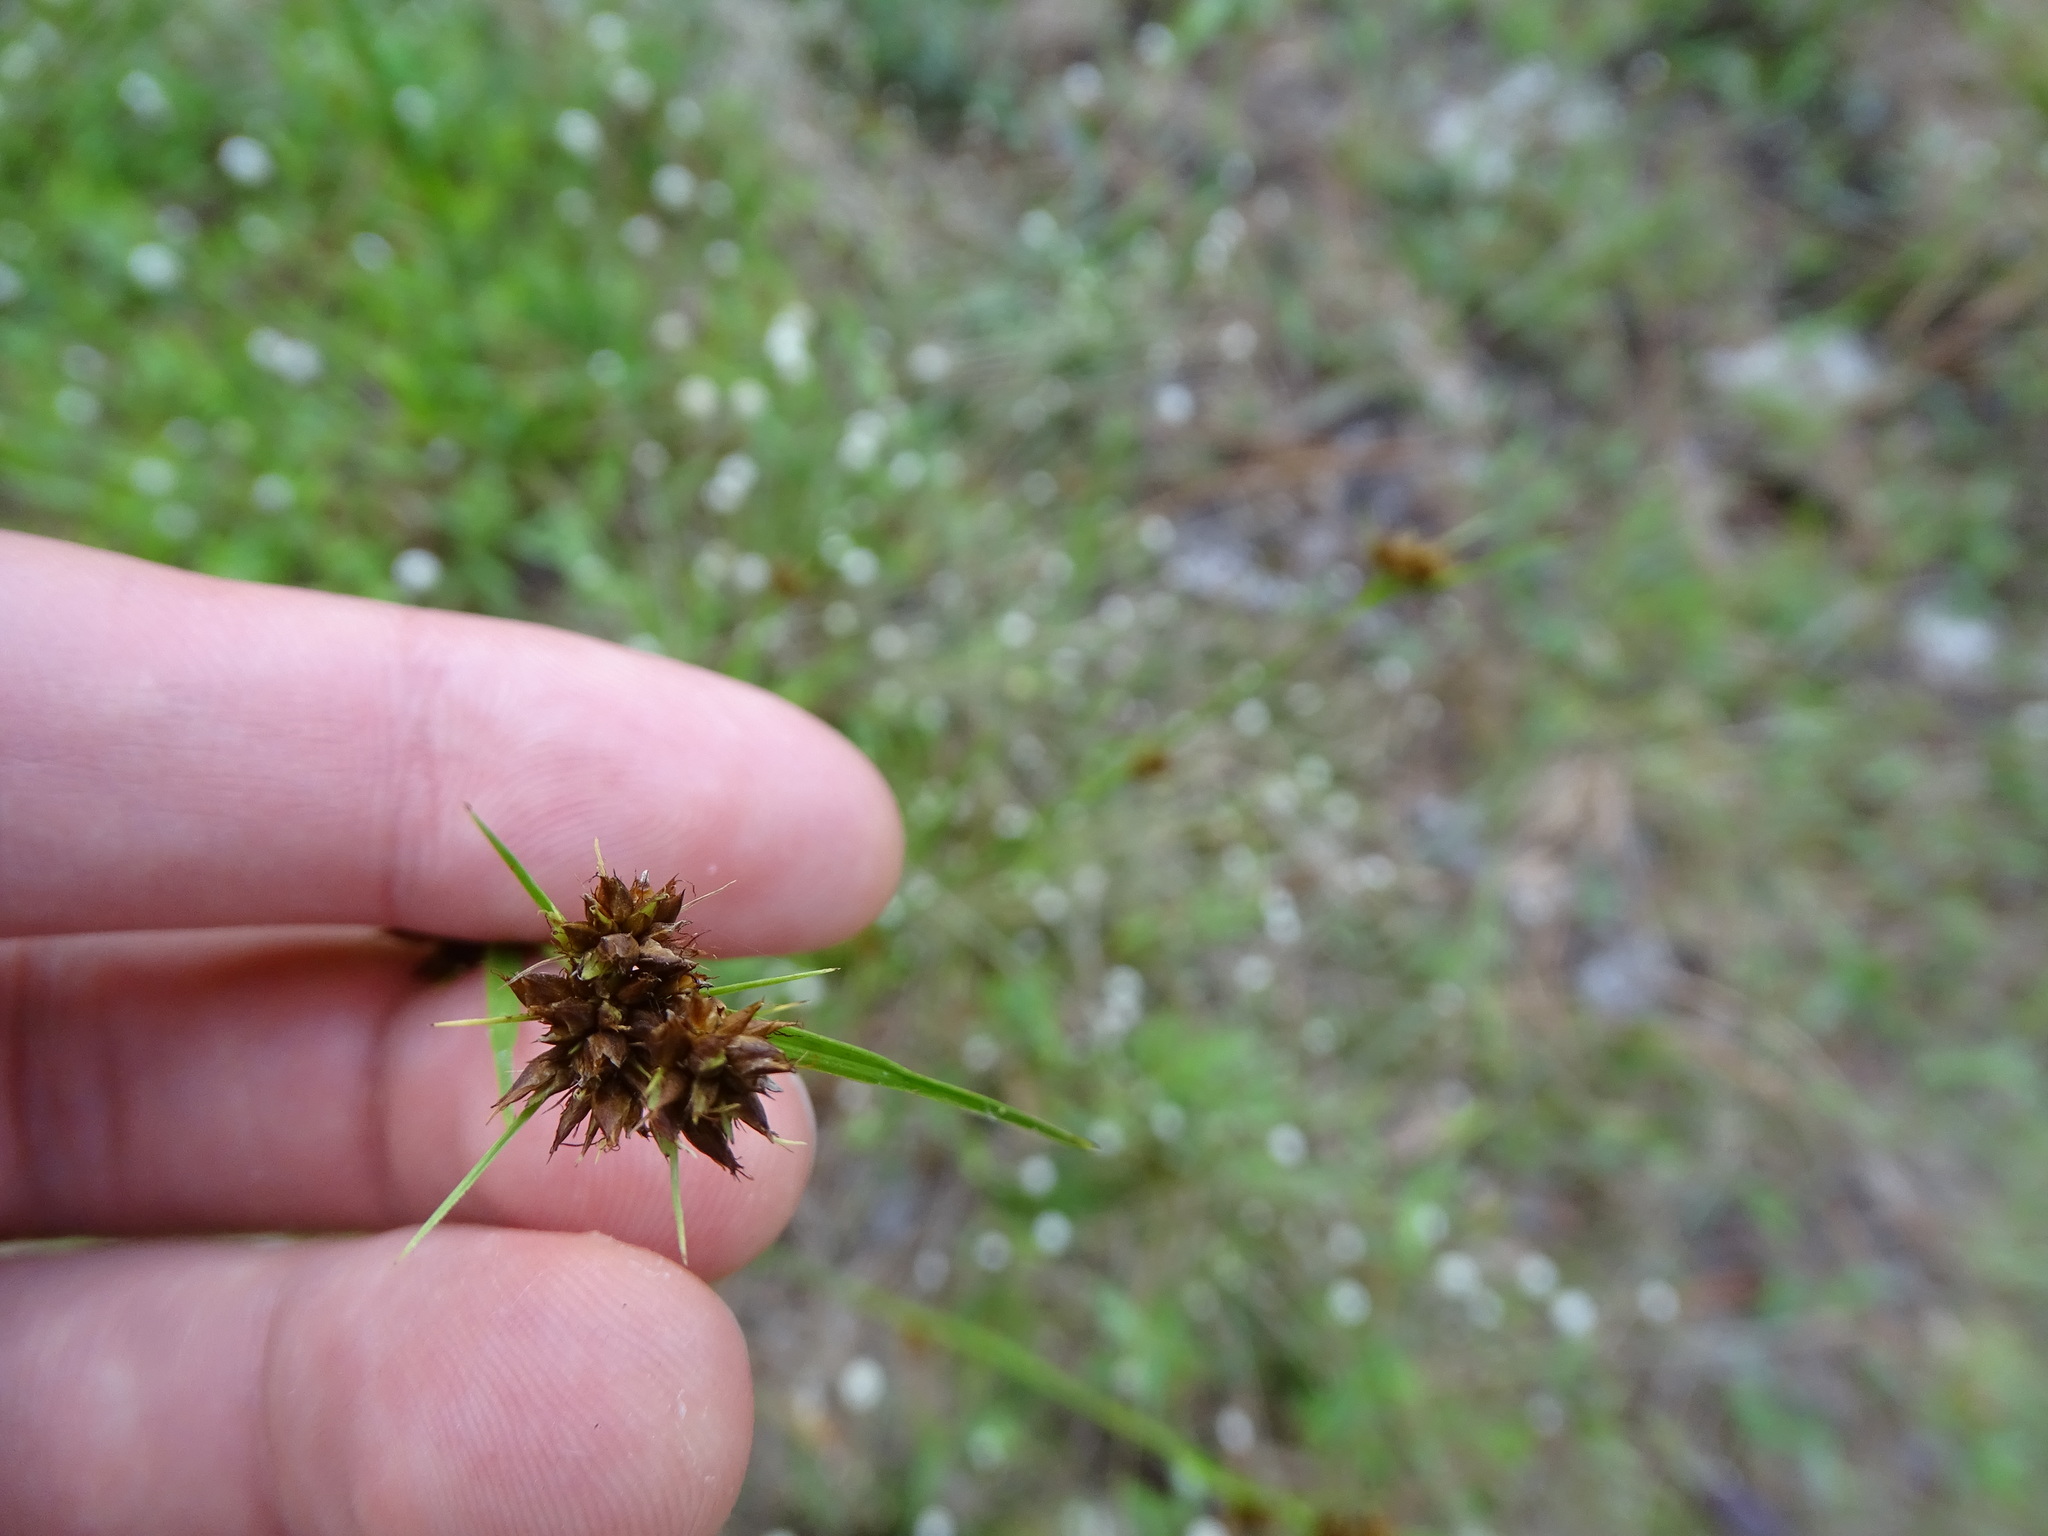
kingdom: Plantae
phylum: Tracheophyta
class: Liliopsida
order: Poales
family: Cyperaceae
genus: Rhynchospora
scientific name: Rhynchospora fascicularis
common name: Fascicled beak sedge
